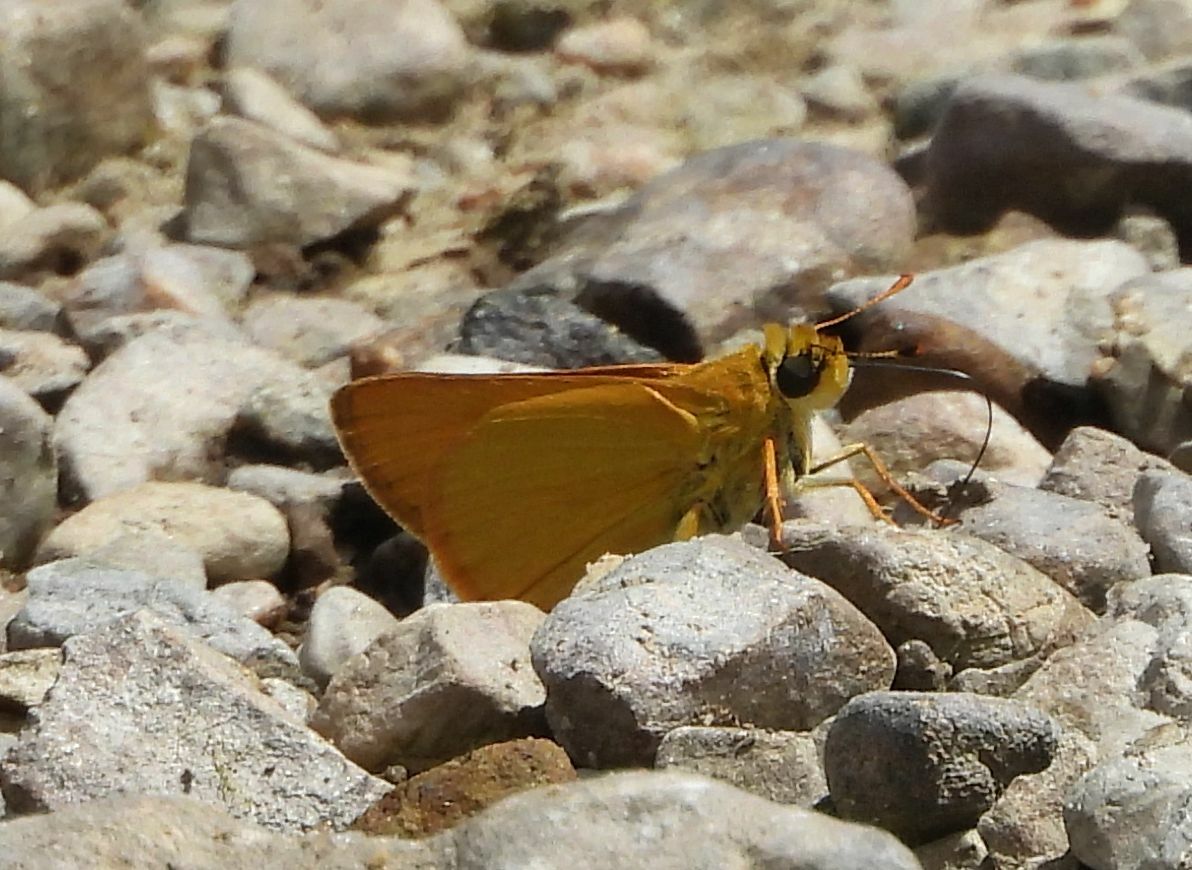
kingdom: Animalia
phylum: Arthropoda
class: Insecta
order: Lepidoptera
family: Hesperiidae
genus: Atrytone
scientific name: Atrytone delaware
